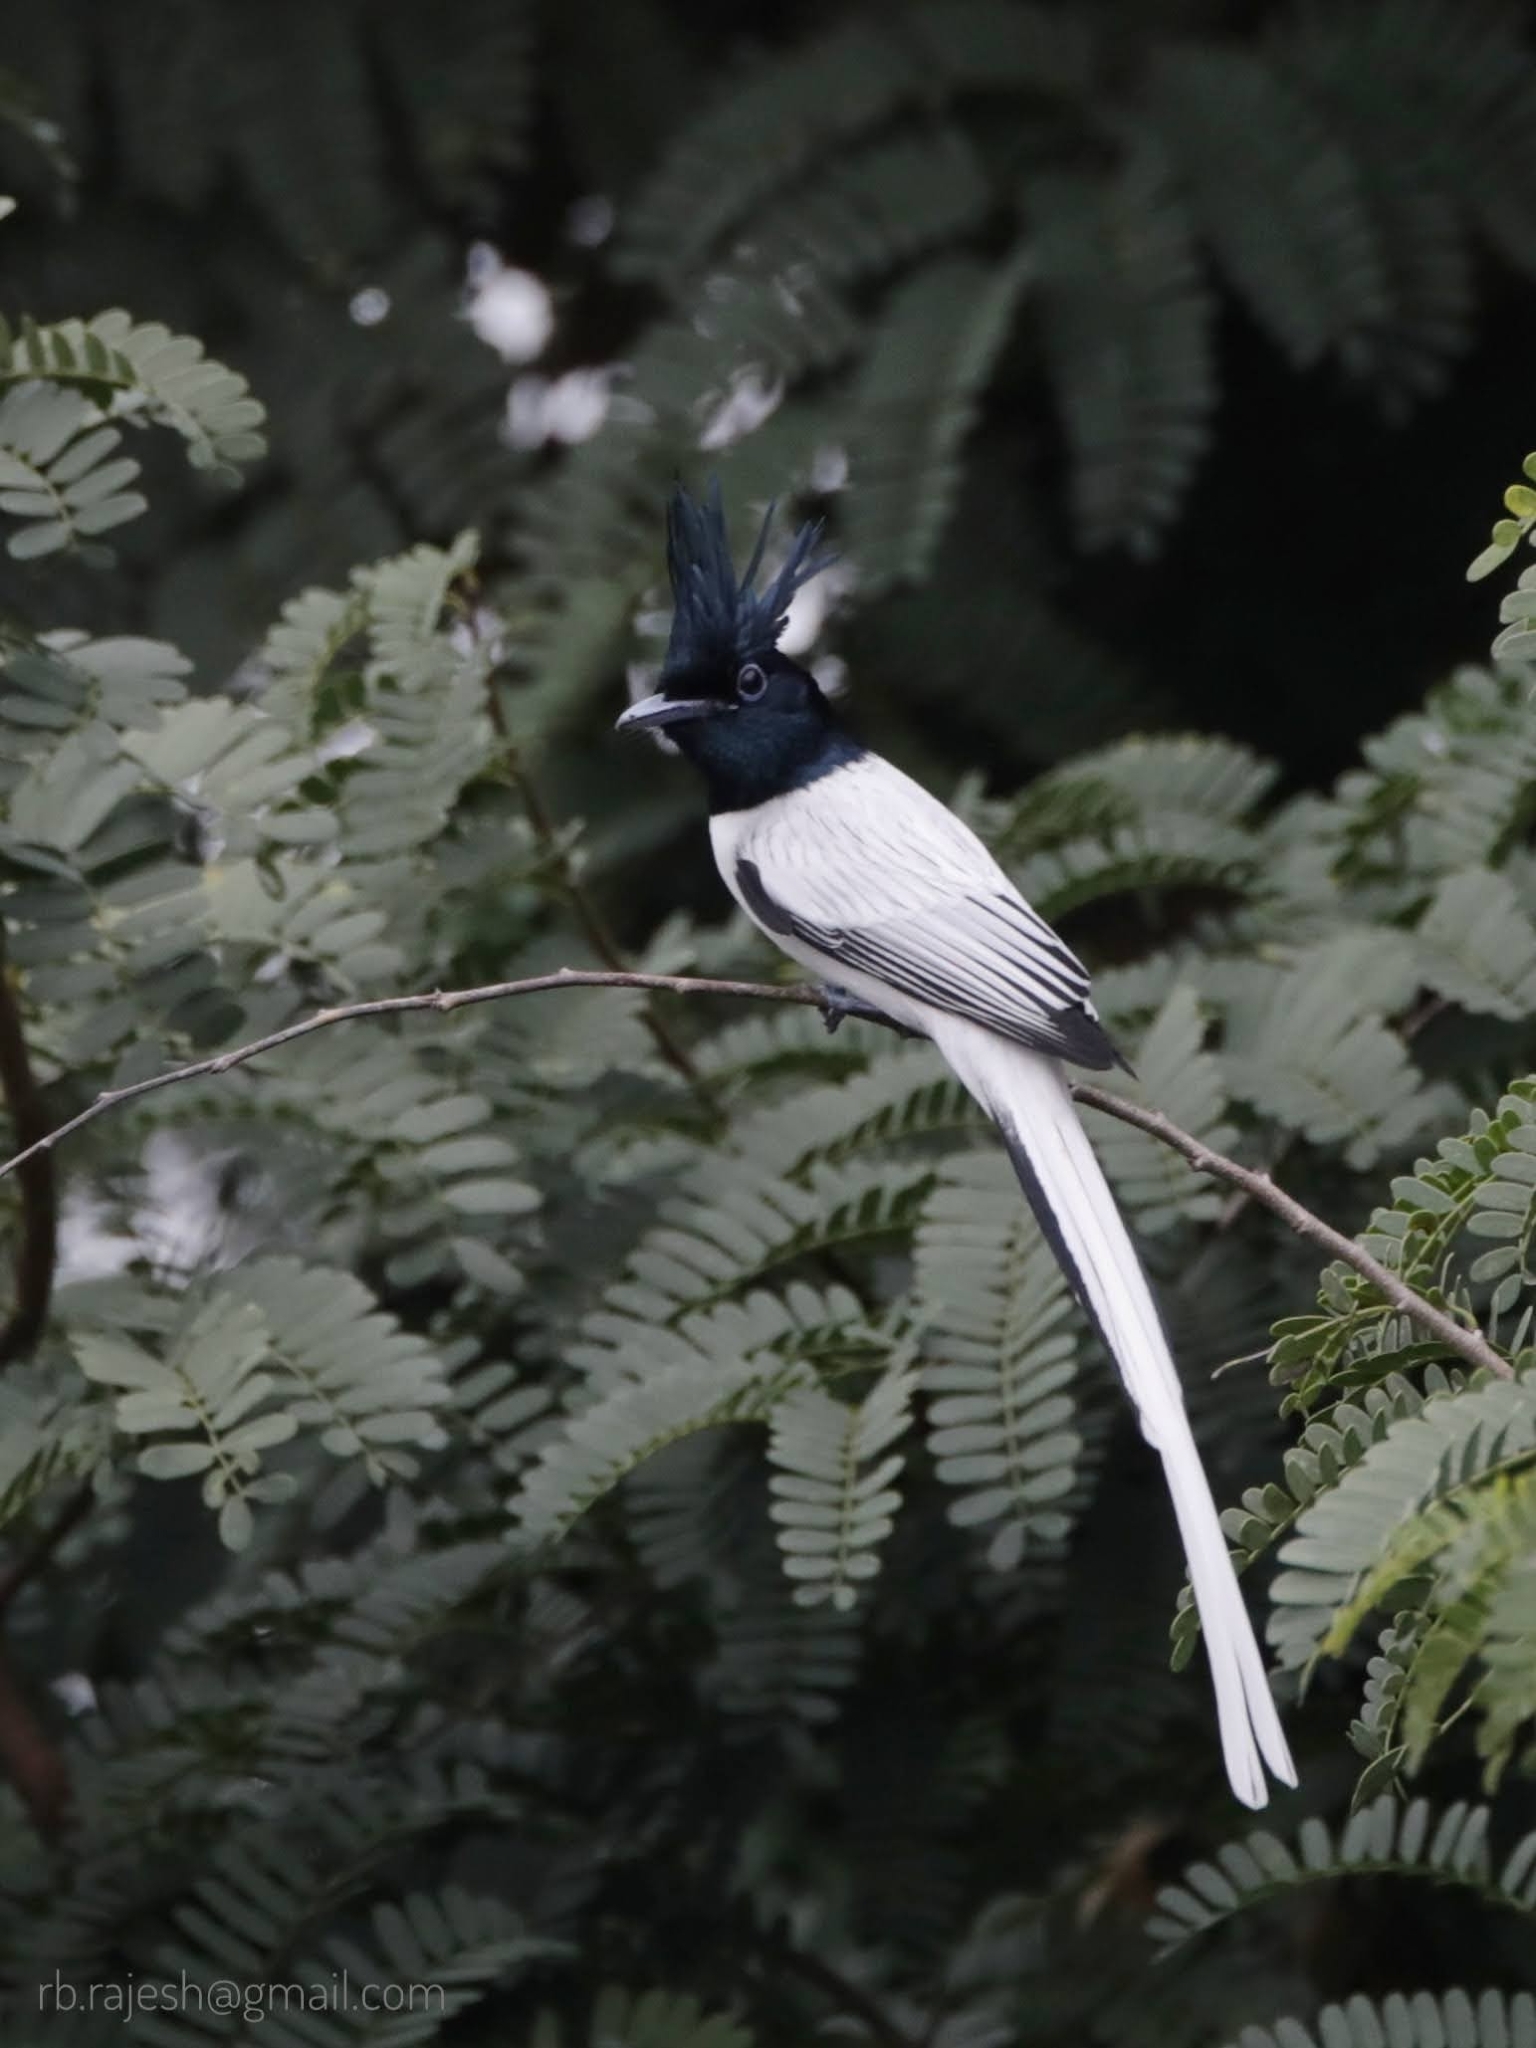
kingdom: Animalia
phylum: Chordata
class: Aves
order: Passeriformes
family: Monarchidae
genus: Terpsiphone
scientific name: Terpsiphone paradisi
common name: Indian paradise flycatcher
